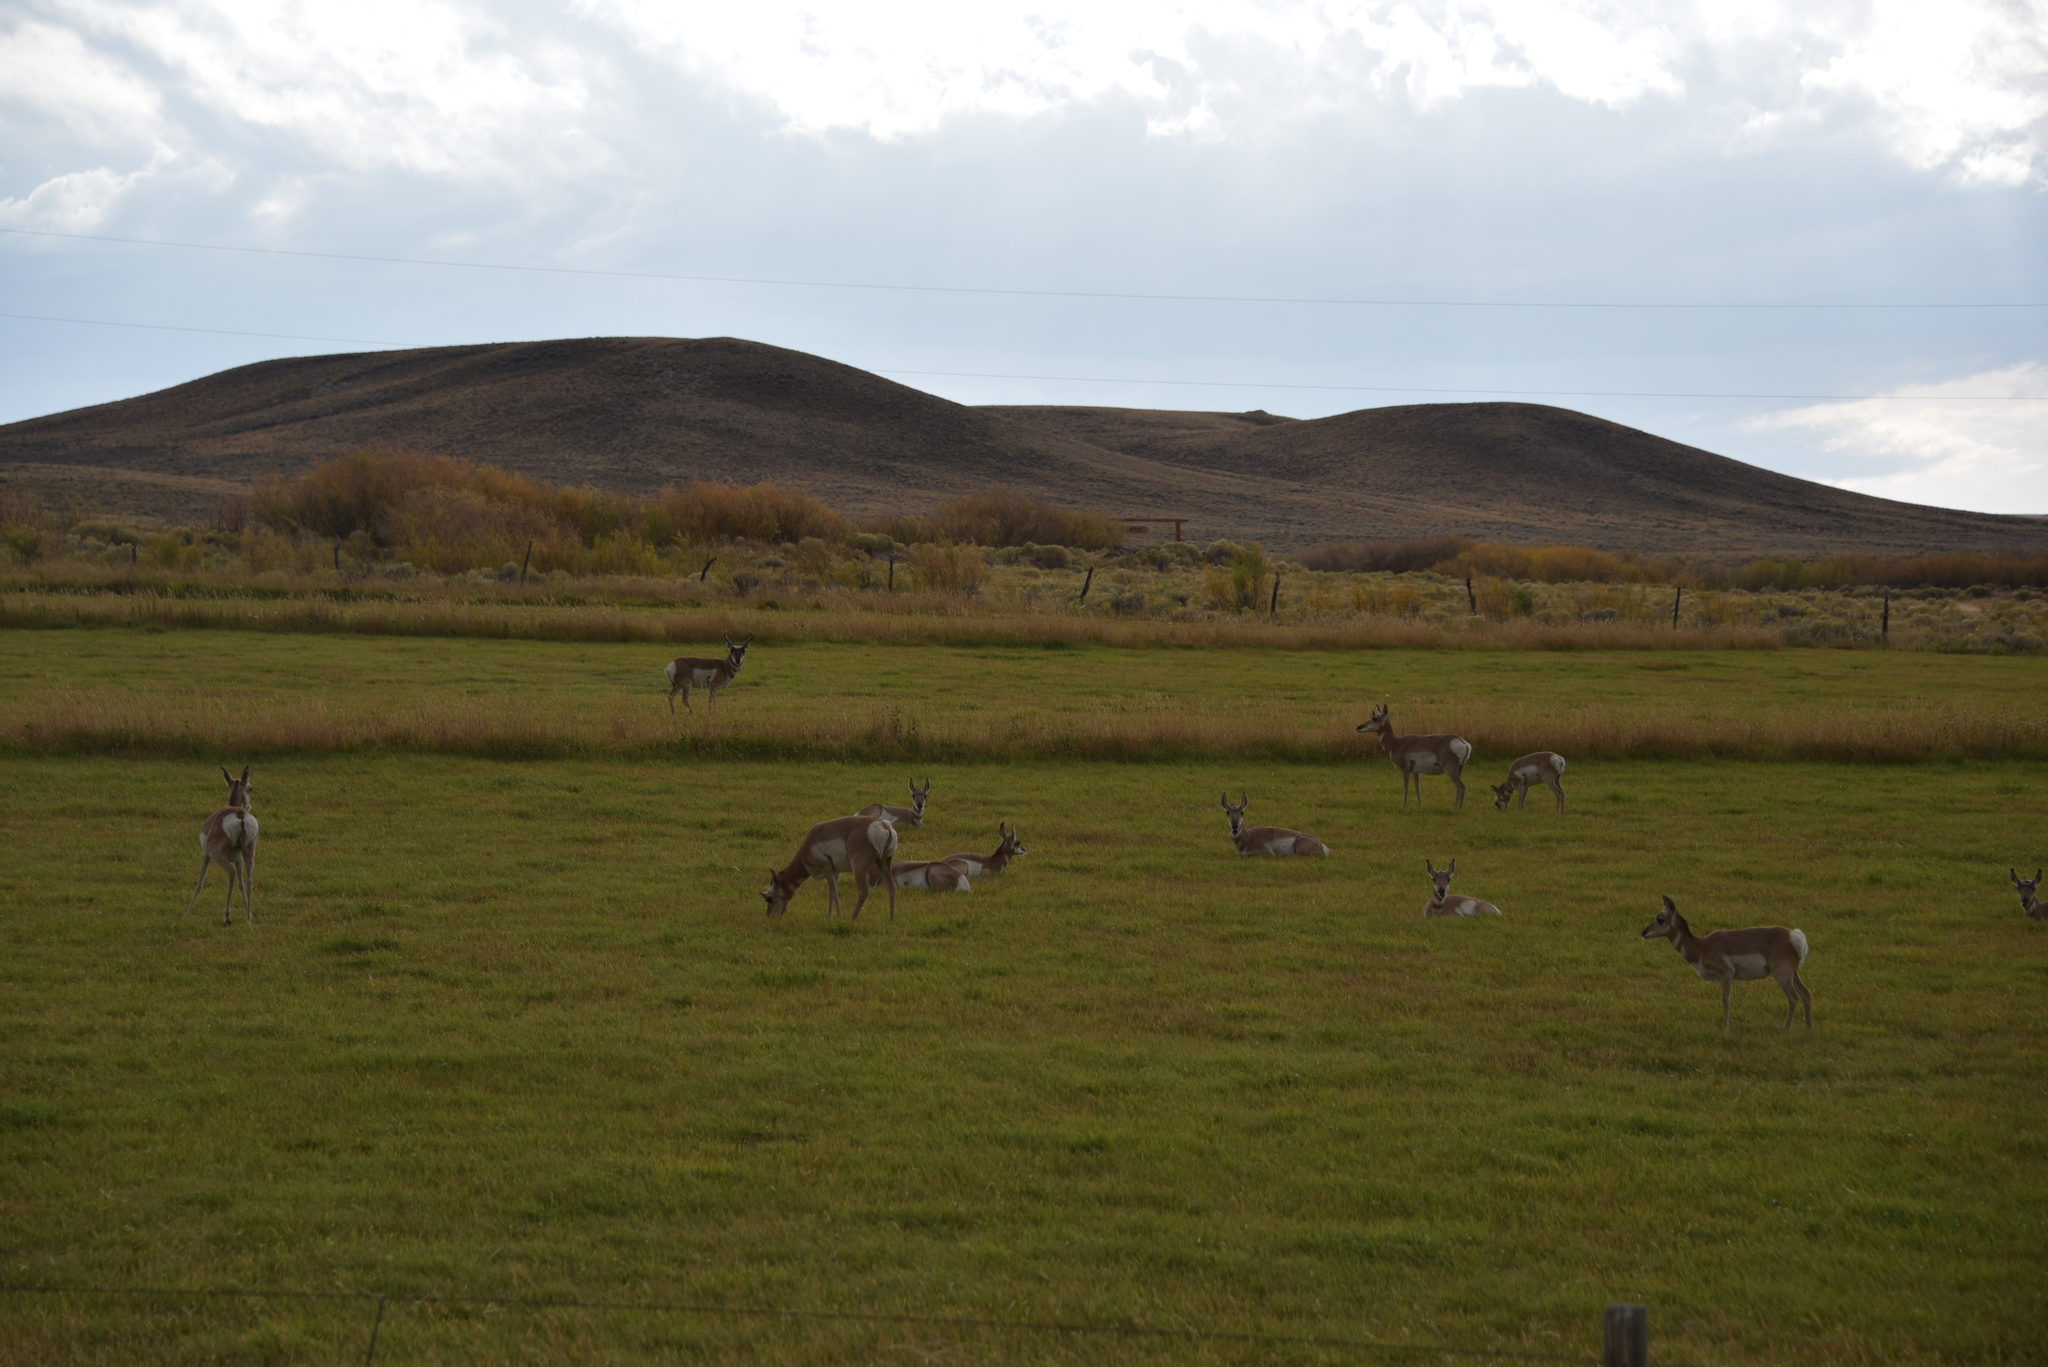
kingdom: Animalia
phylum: Chordata
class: Mammalia
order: Artiodactyla
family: Antilocapridae
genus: Antilocapra
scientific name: Antilocapra americana
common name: Pronghorn
